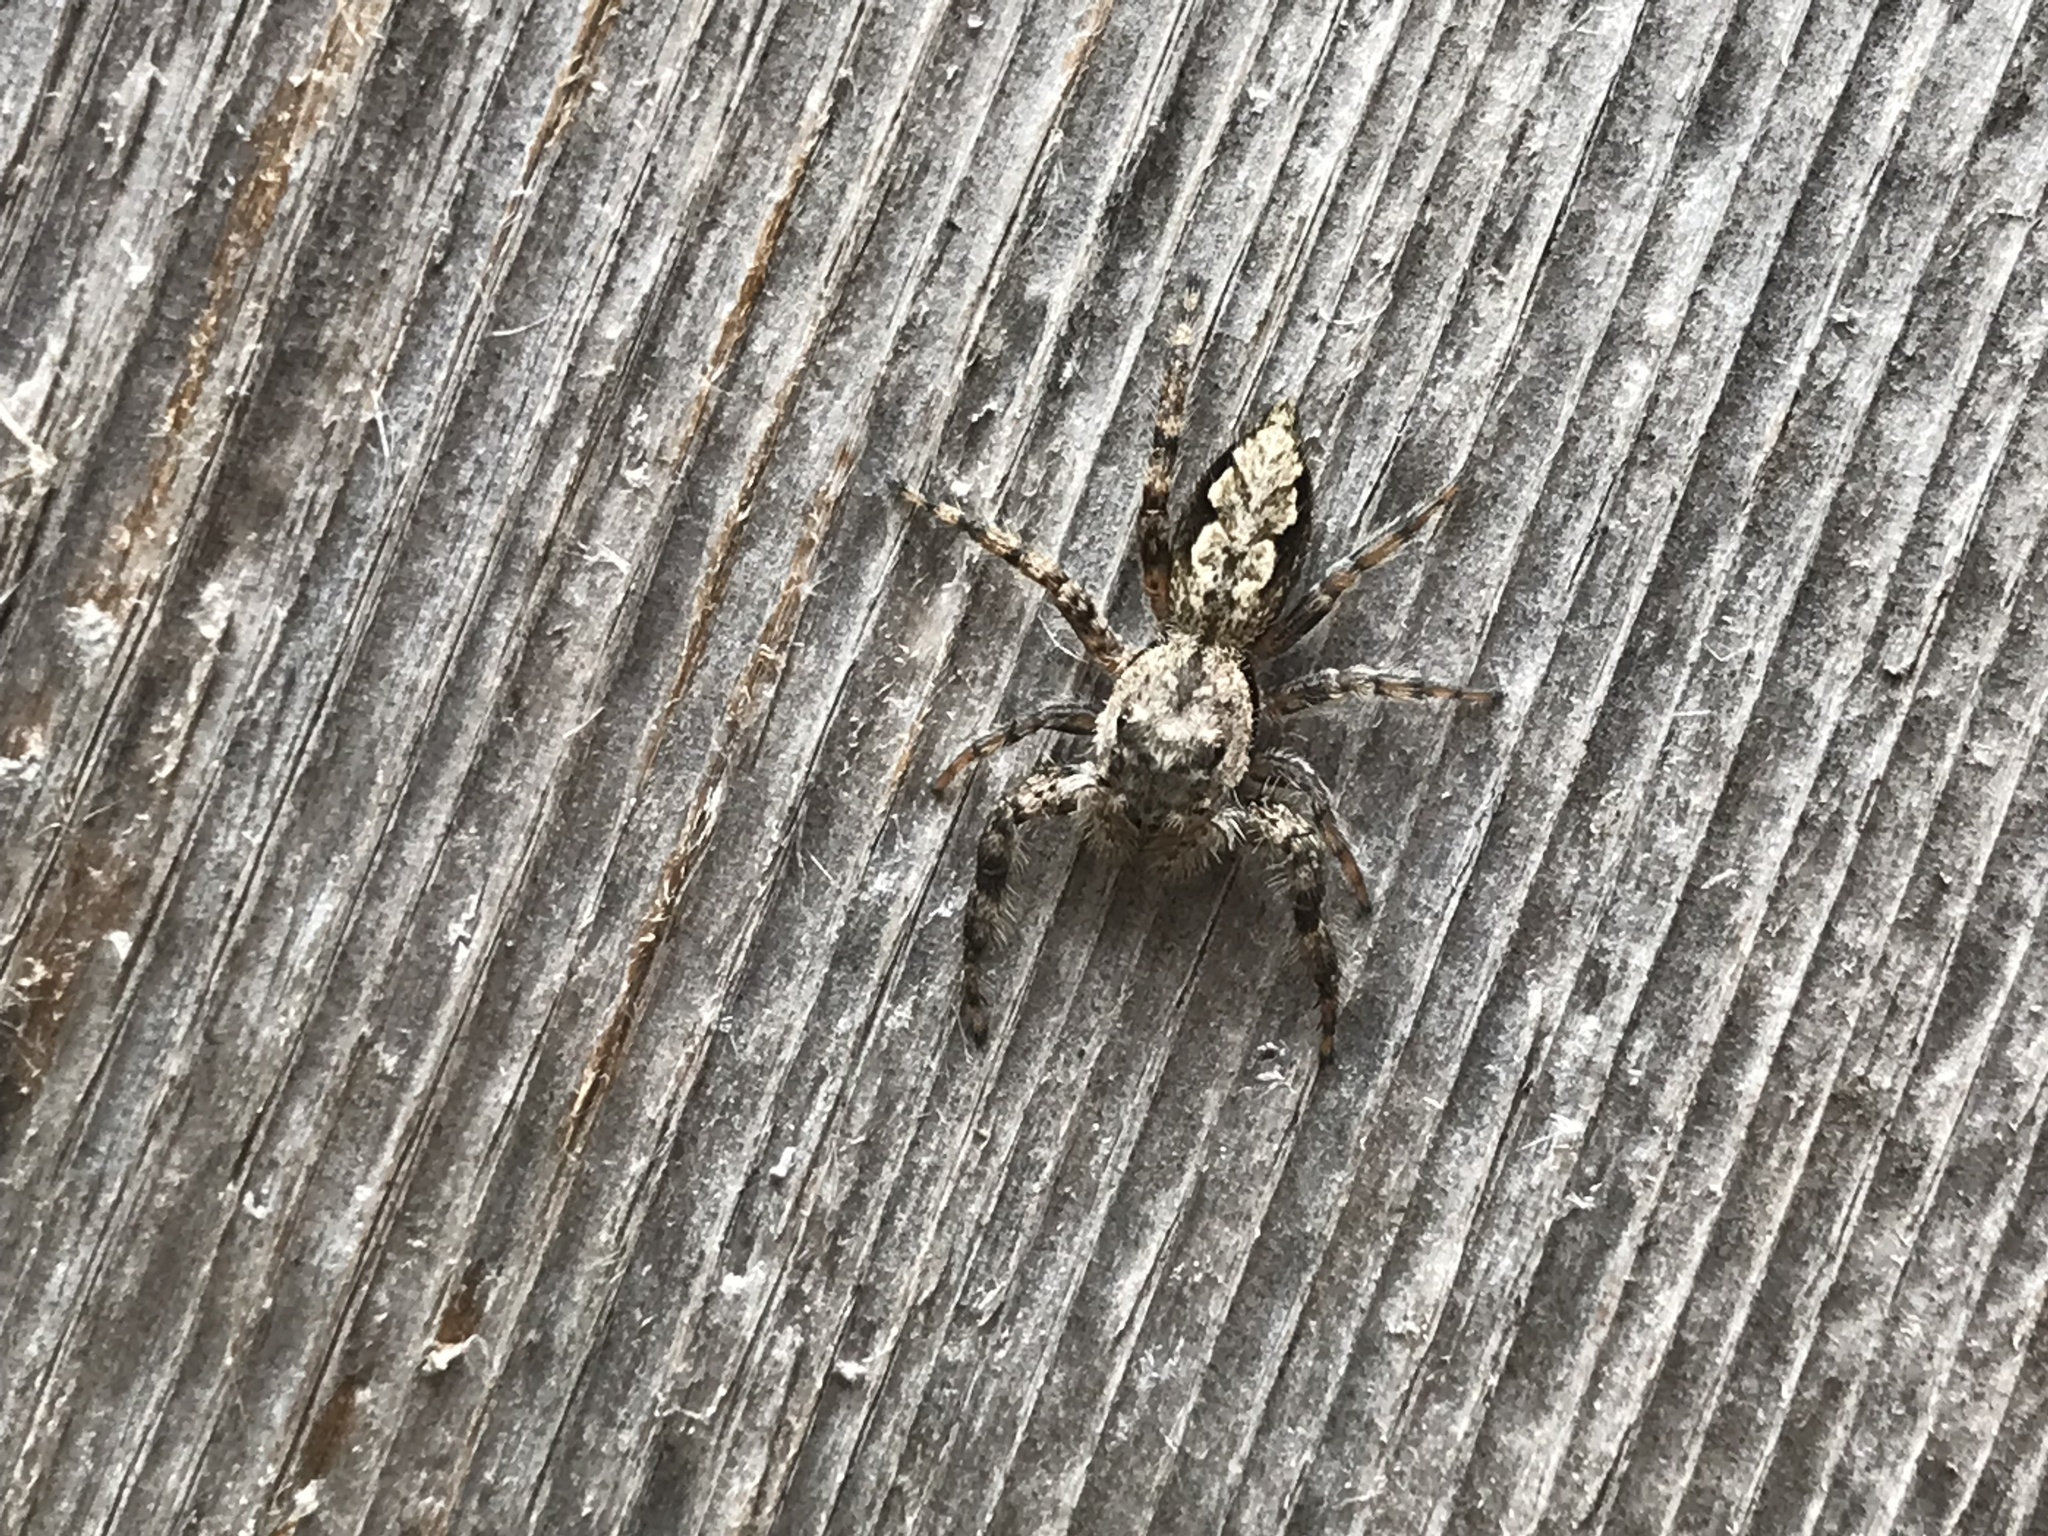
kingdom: Animalia
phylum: Arthropoda
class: Arachnida
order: Araneae
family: Salticidae
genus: Platycryptus
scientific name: Platycryptus undatus
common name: Tan jumping spider
